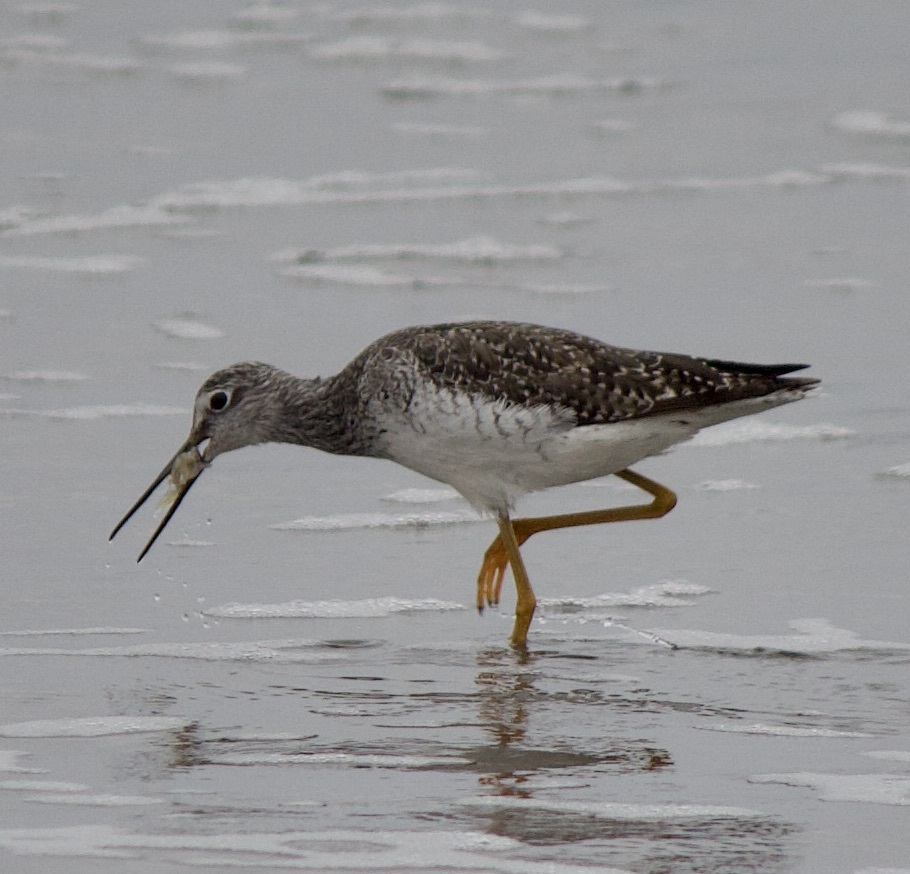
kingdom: Animalia
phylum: Chordata
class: Aves
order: Charadriiformes
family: Scolopacidae
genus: Tringa
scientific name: Tringa melanoleuca
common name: Greater yellowlegs
